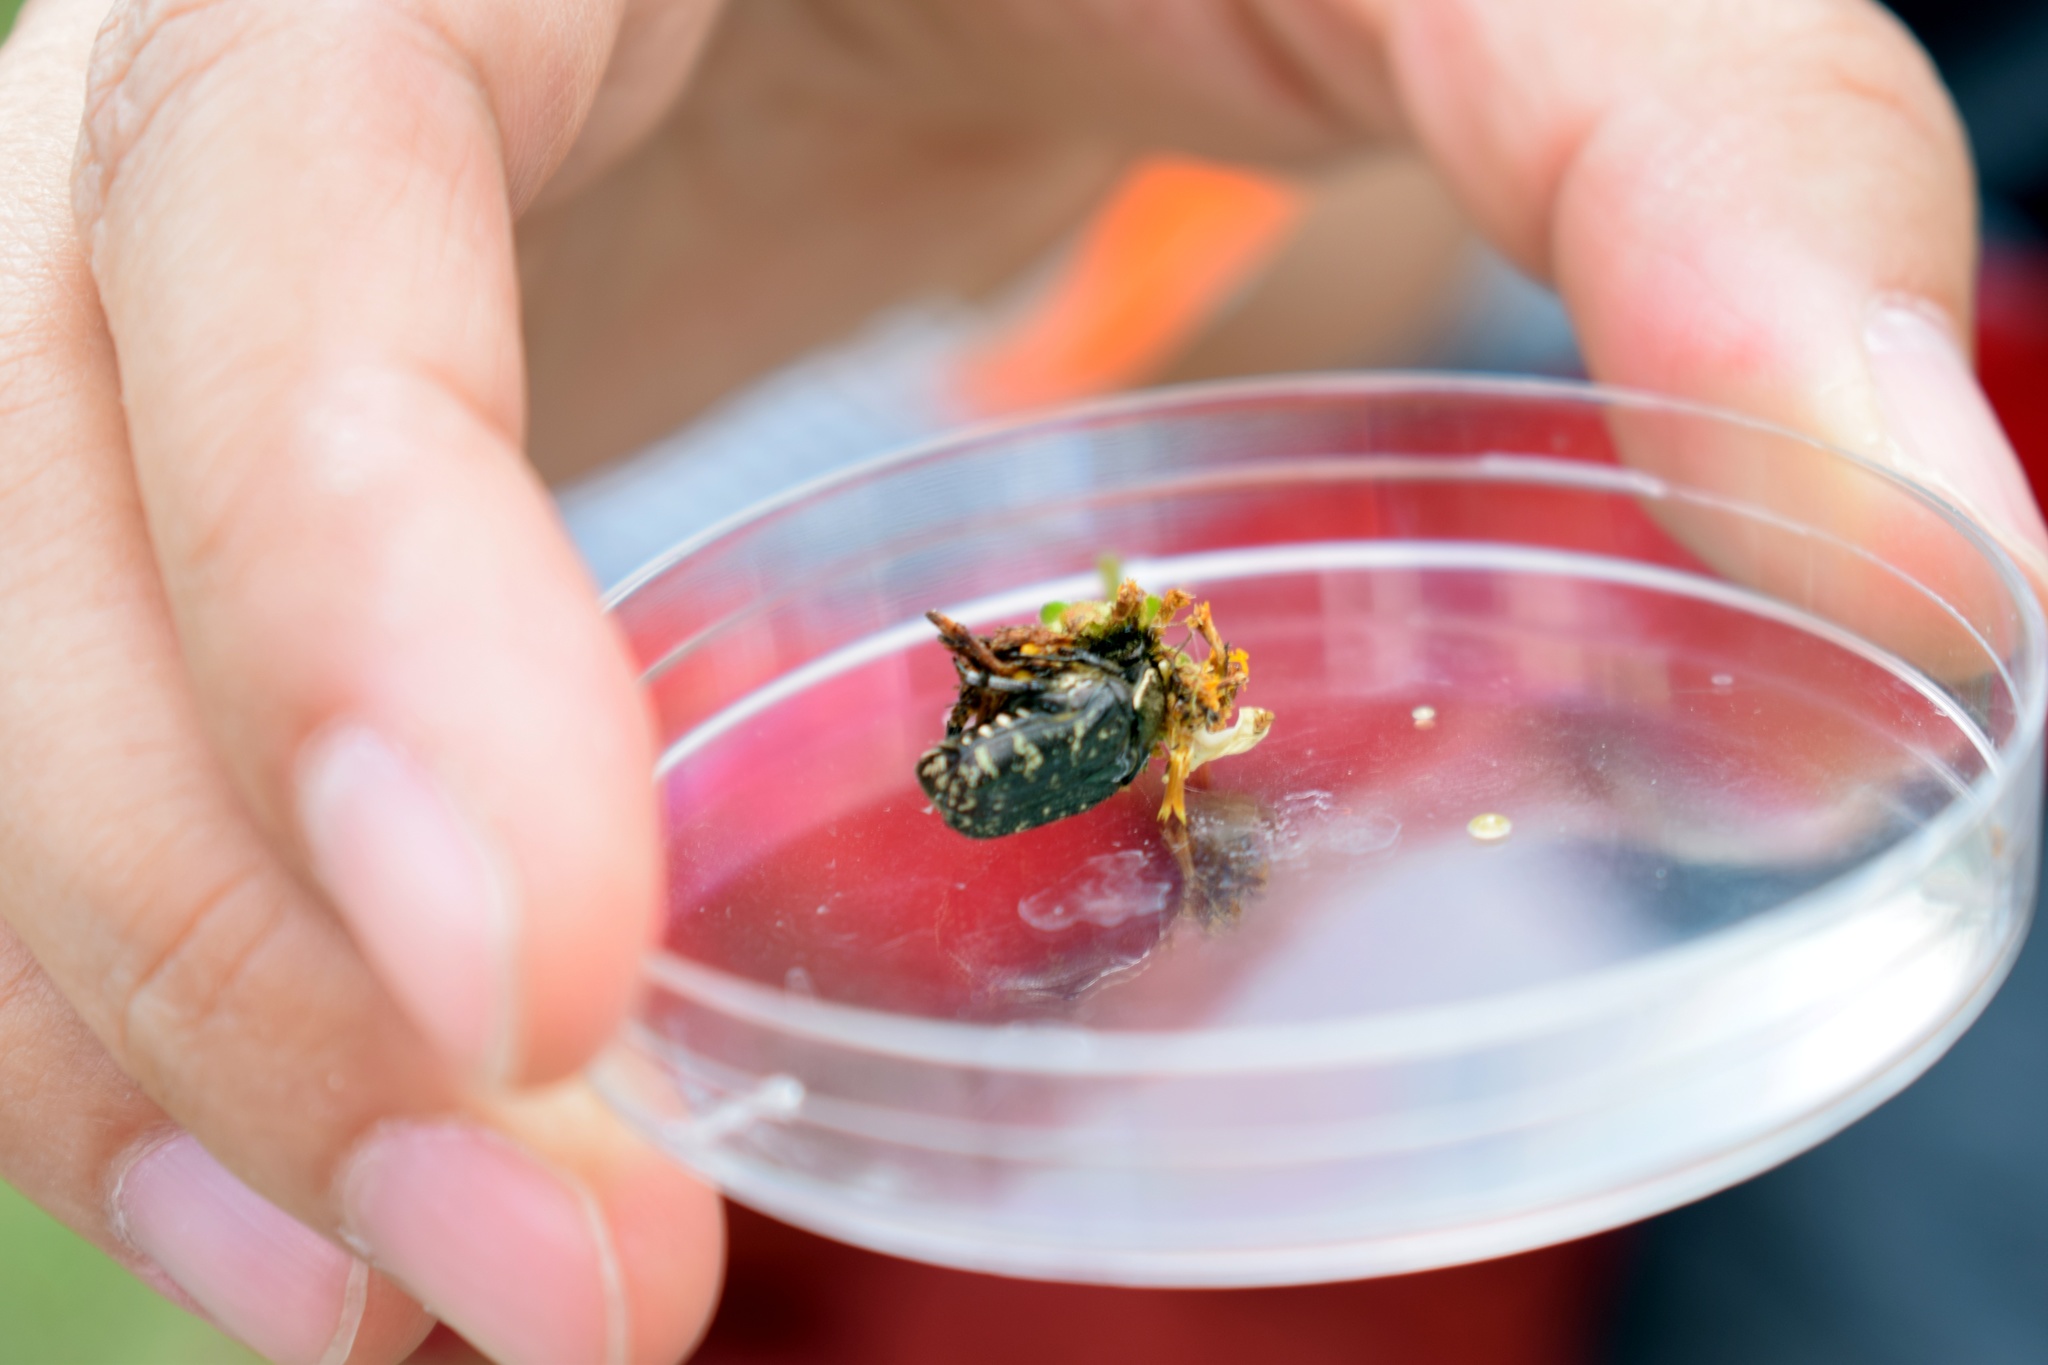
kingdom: Animalia
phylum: Arthropoda
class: Insecta
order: Coleoptera
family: Scarabaeidae
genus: Euphoria
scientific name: Euphoria sepulcralis
